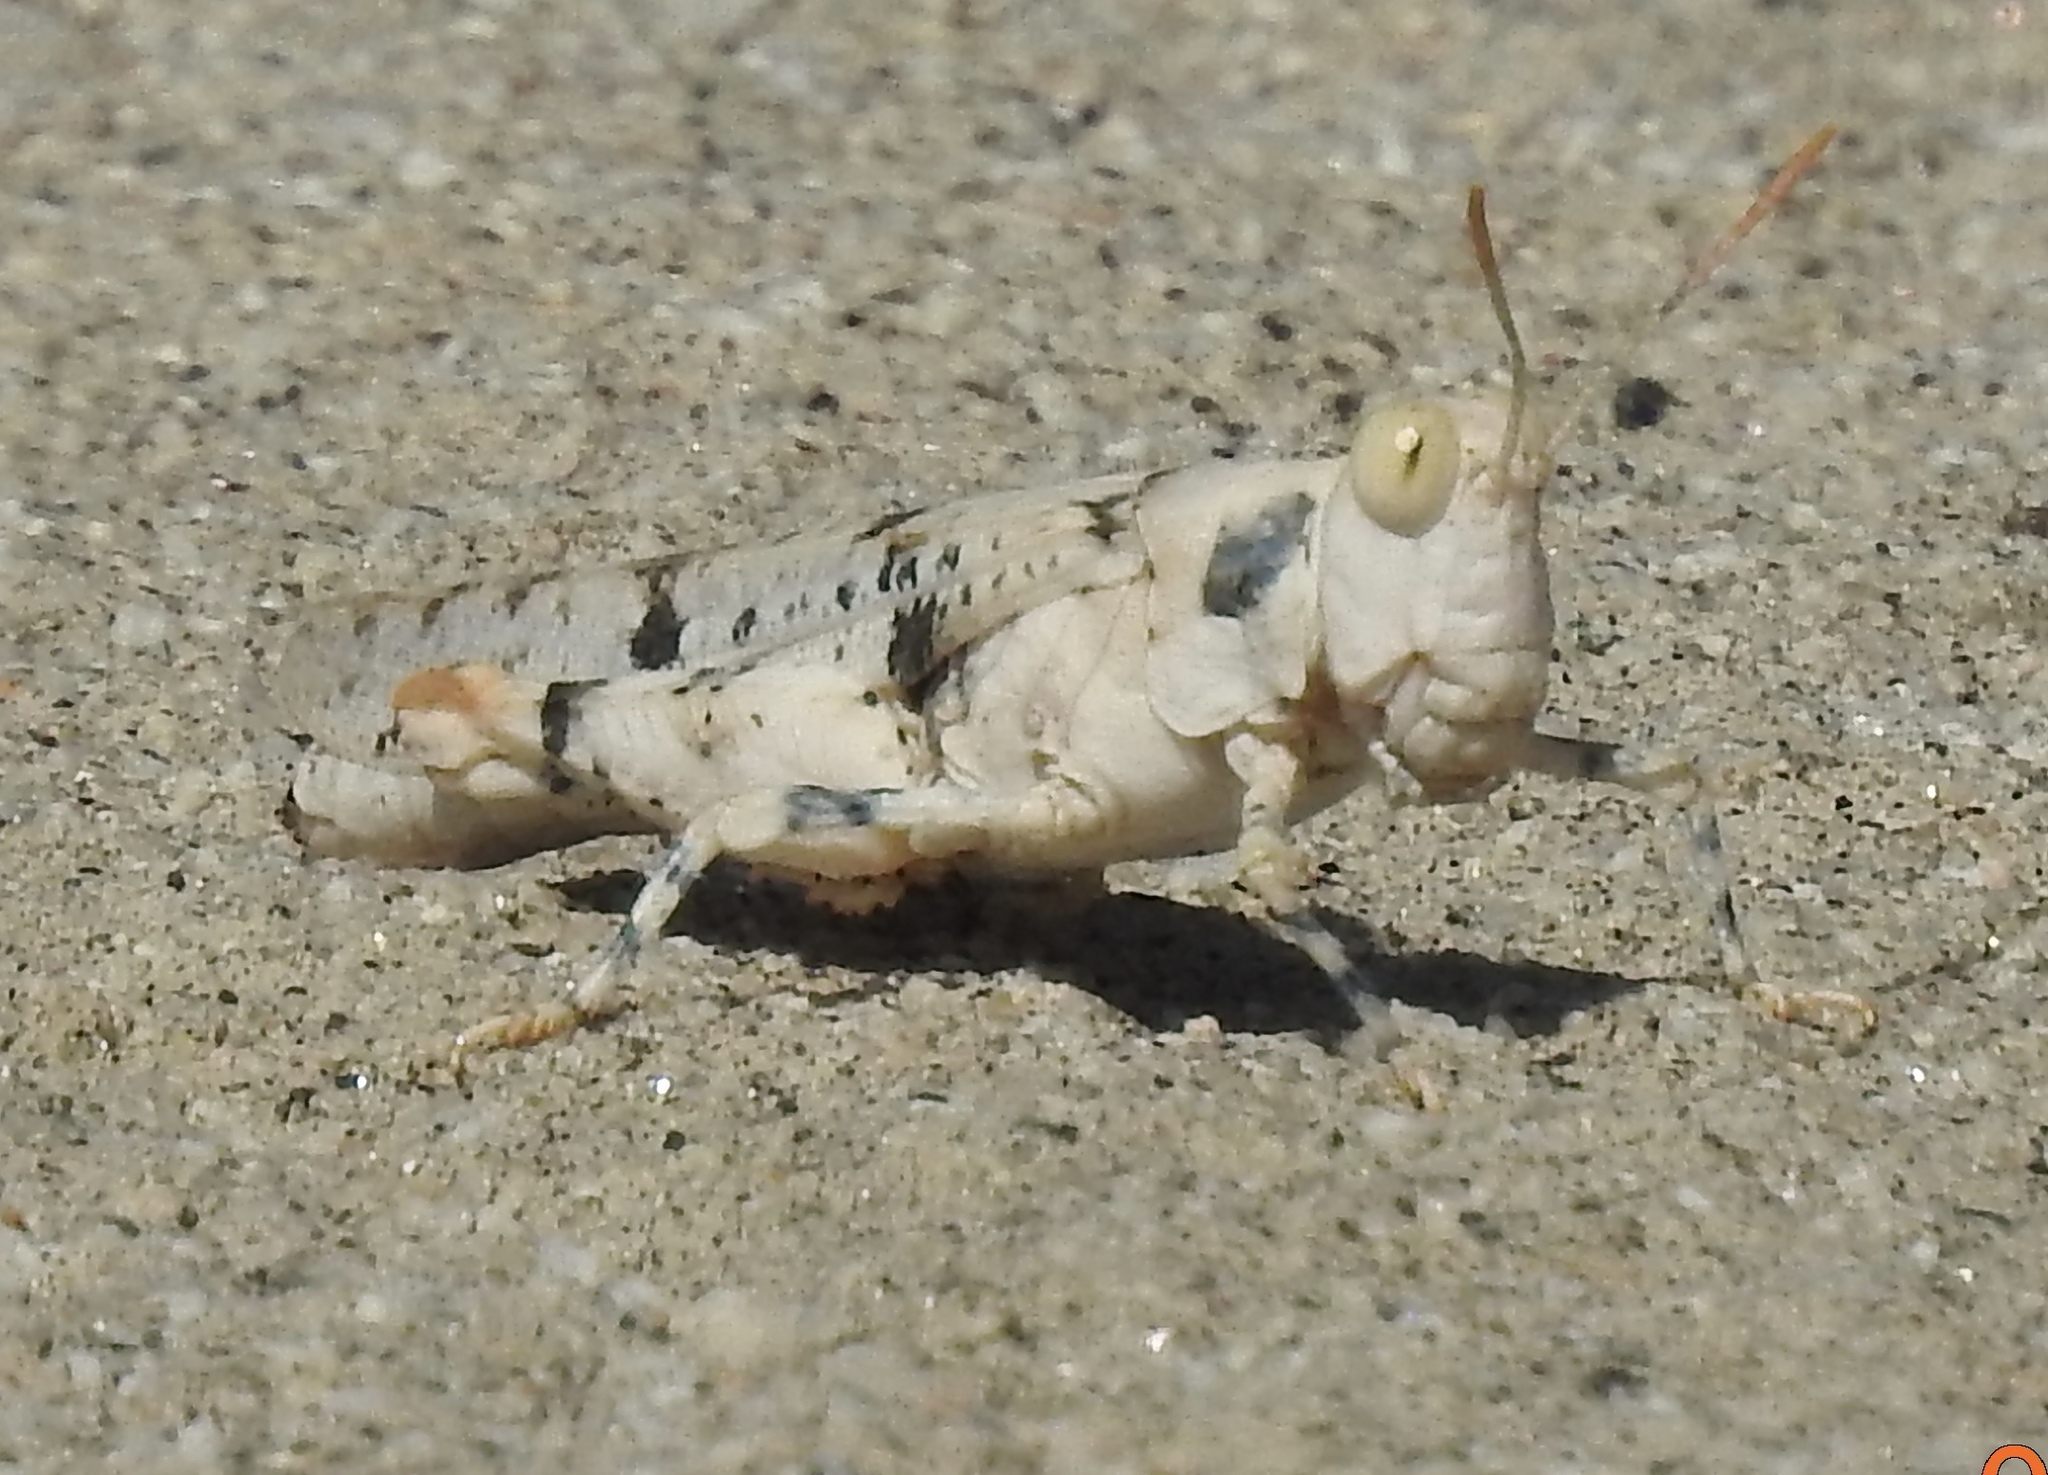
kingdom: Animalia
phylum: Arthropoda
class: Insecta
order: Orthoptera
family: Acrididae
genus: Cibolacris
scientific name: Cibolacris parviceps
